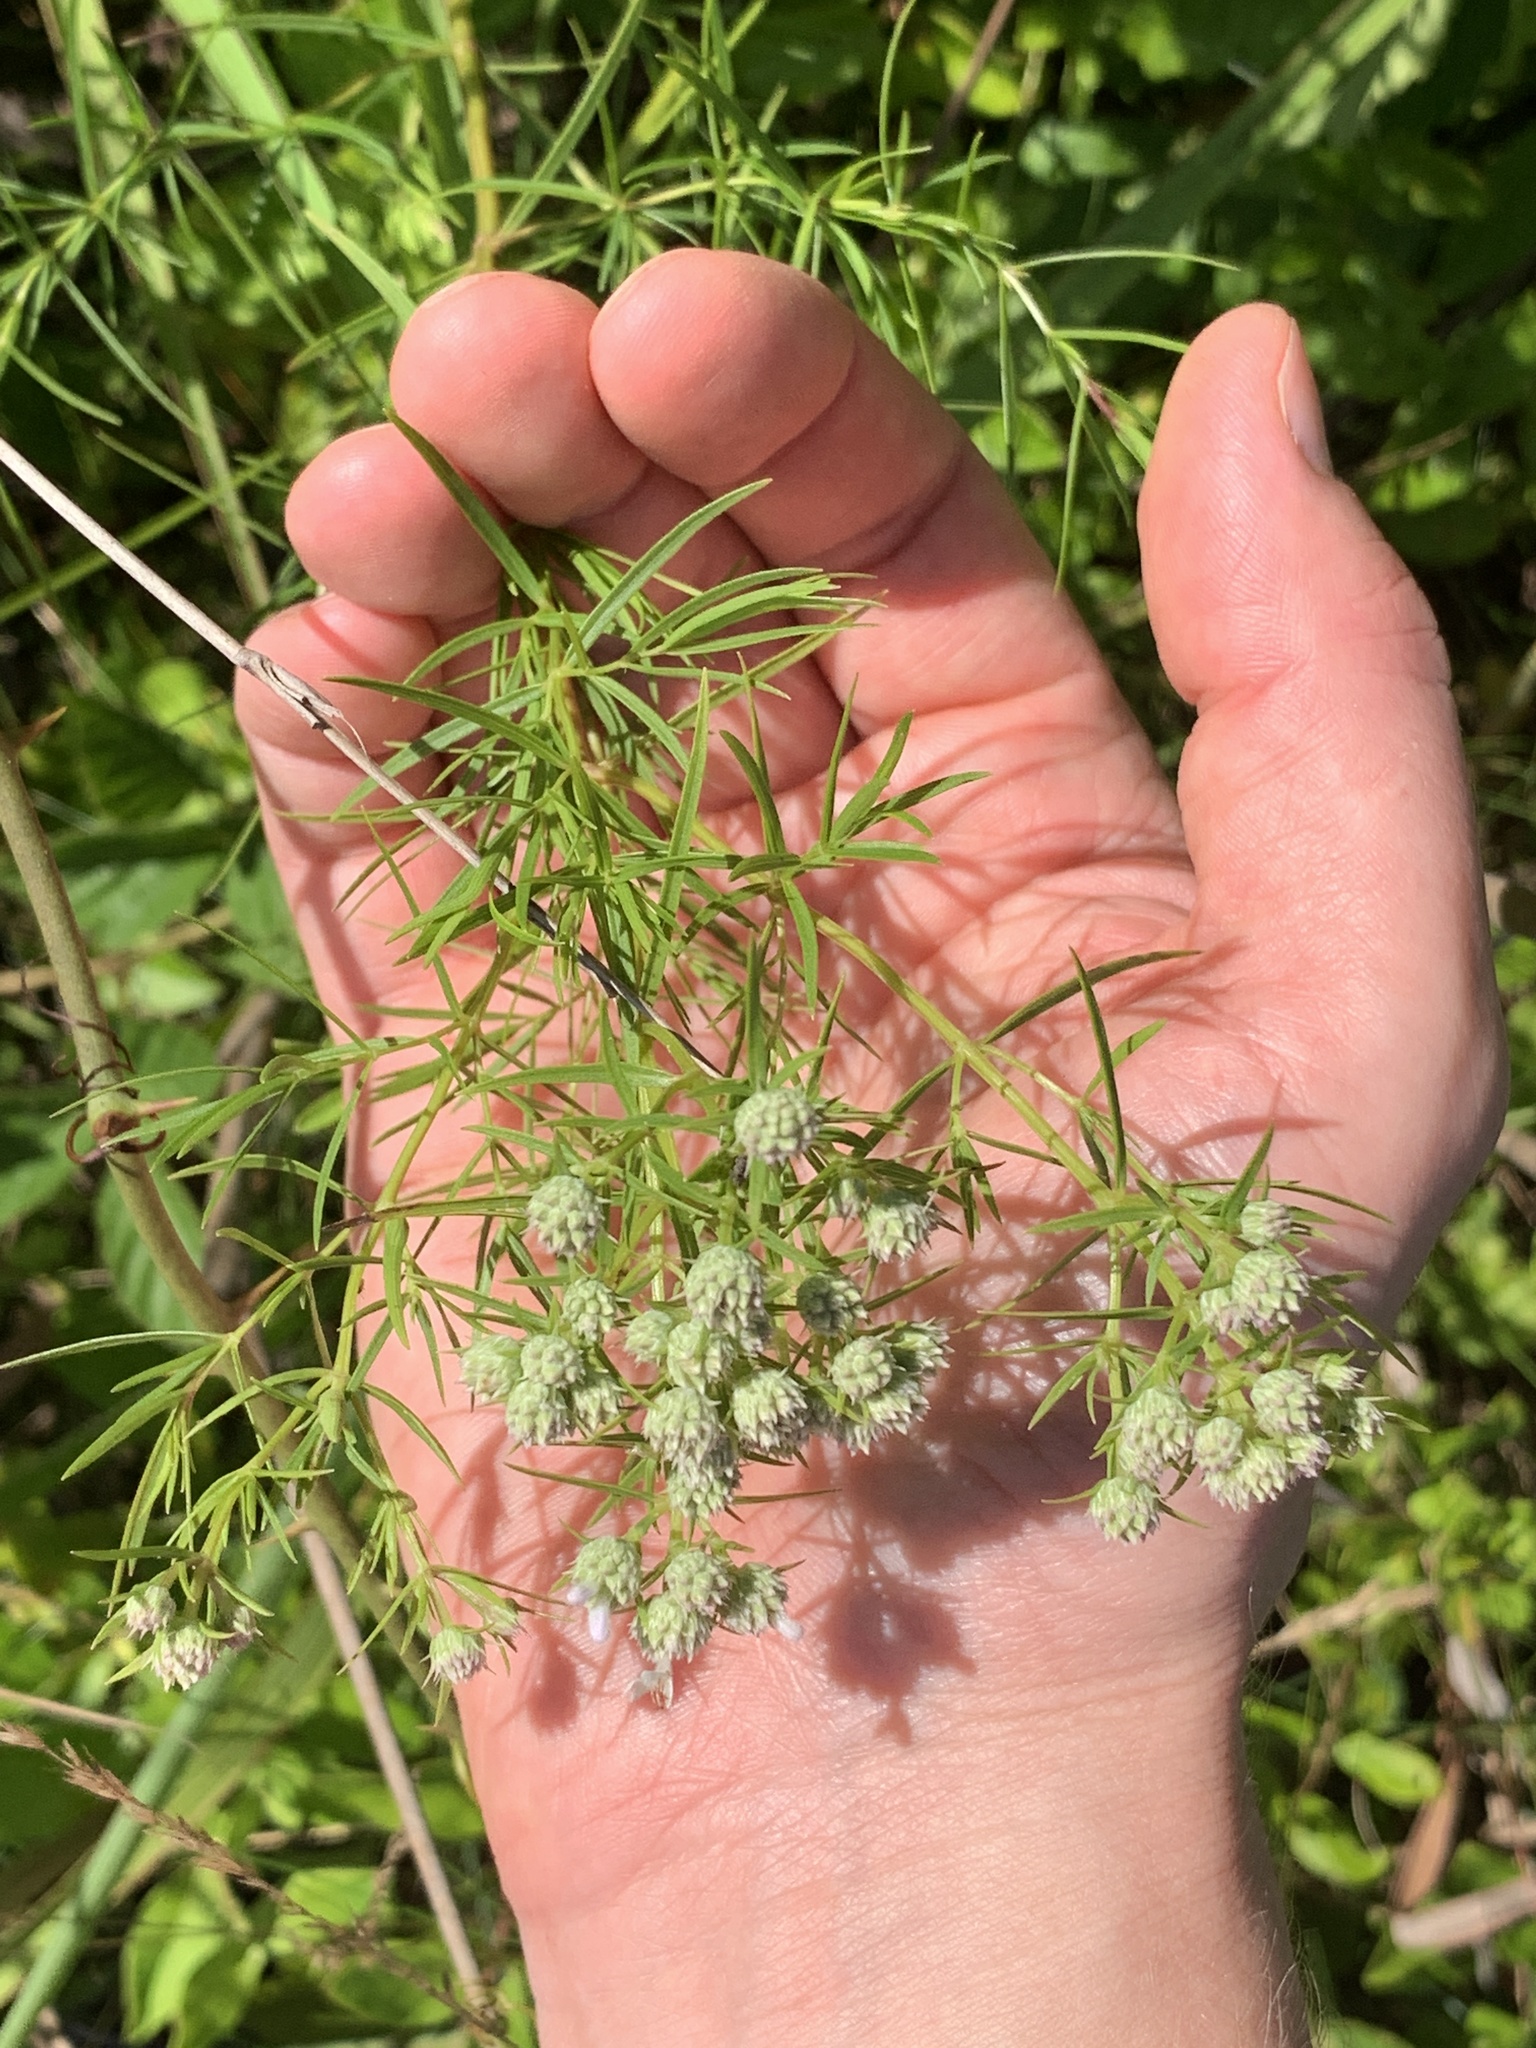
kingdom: Plantae
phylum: Tracheophyta
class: Magnoliopsida
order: Lamiales
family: Lamiaceae
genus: Pycnanthemum
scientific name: Pycnanthemum tenuifolium
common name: Narrow-leaf mountain-mint
